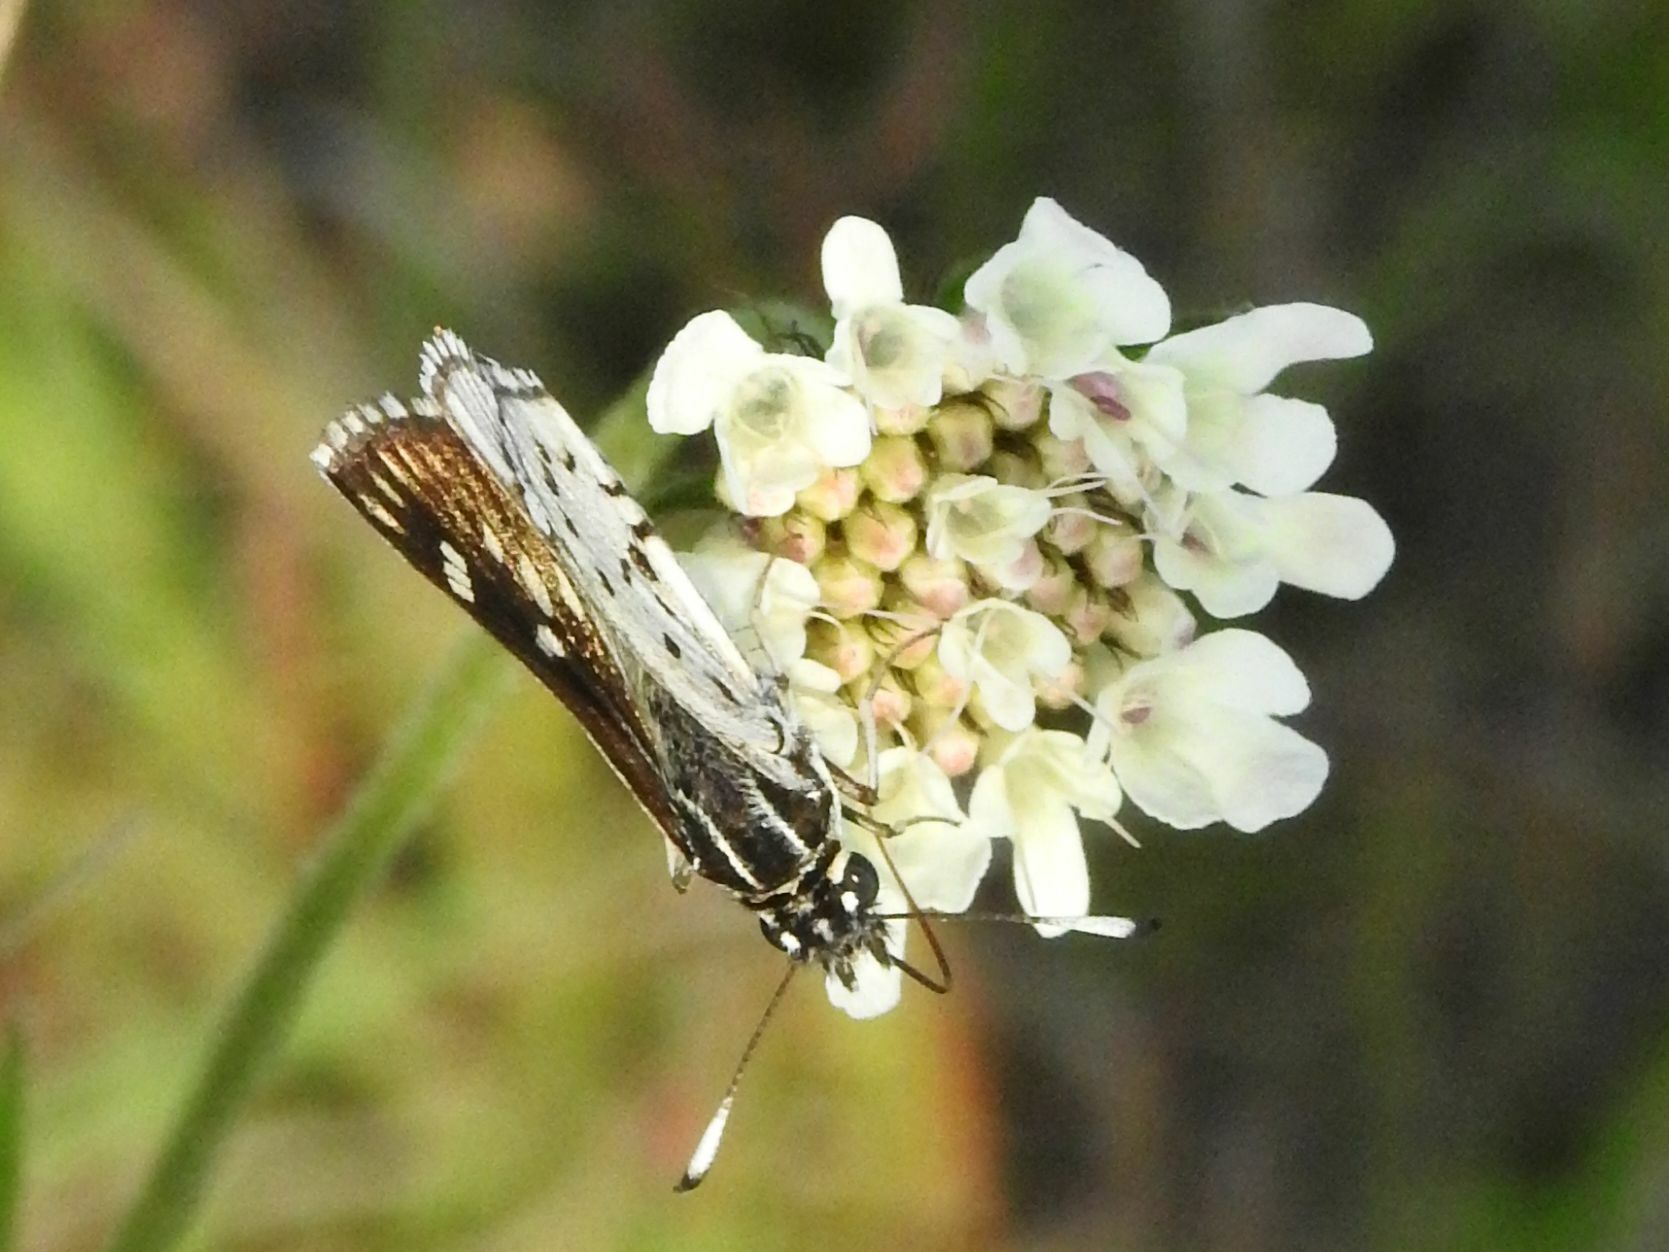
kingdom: Animalia
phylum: Arthropoda
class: Insecta
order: Lepidoptera
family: Hesperiidae
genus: Nervia
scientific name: Nervia
